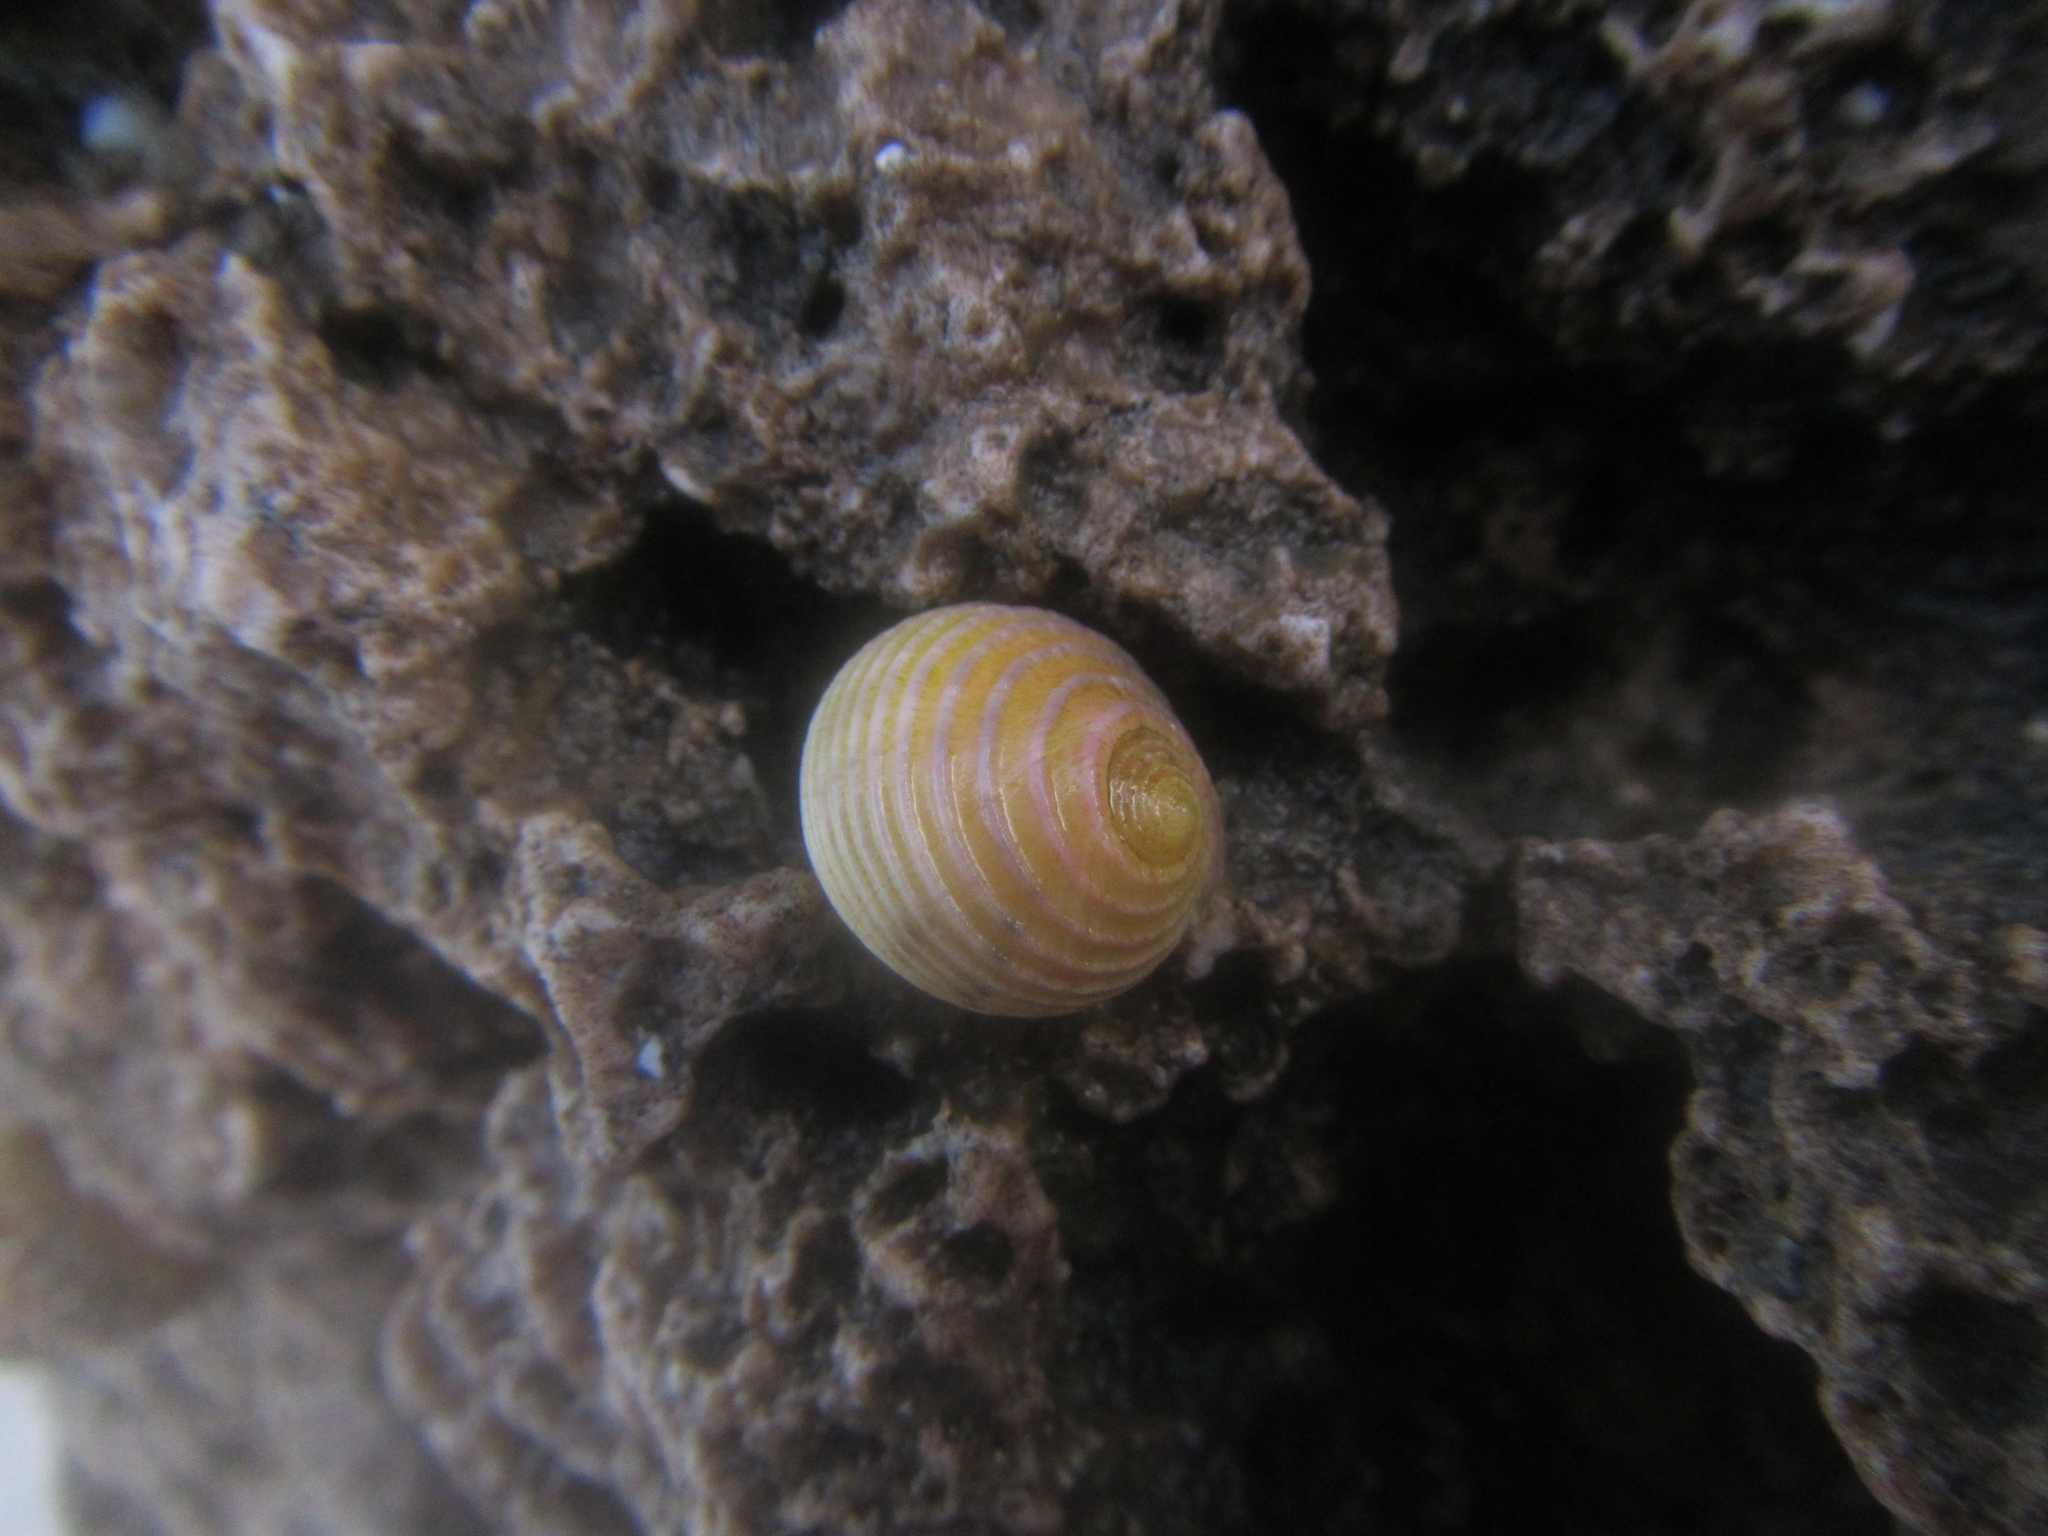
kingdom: Animalia
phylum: Mollusca
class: Gastropoda
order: Cycloneritida
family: Neritidae
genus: Nerita
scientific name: Nerita plicata
